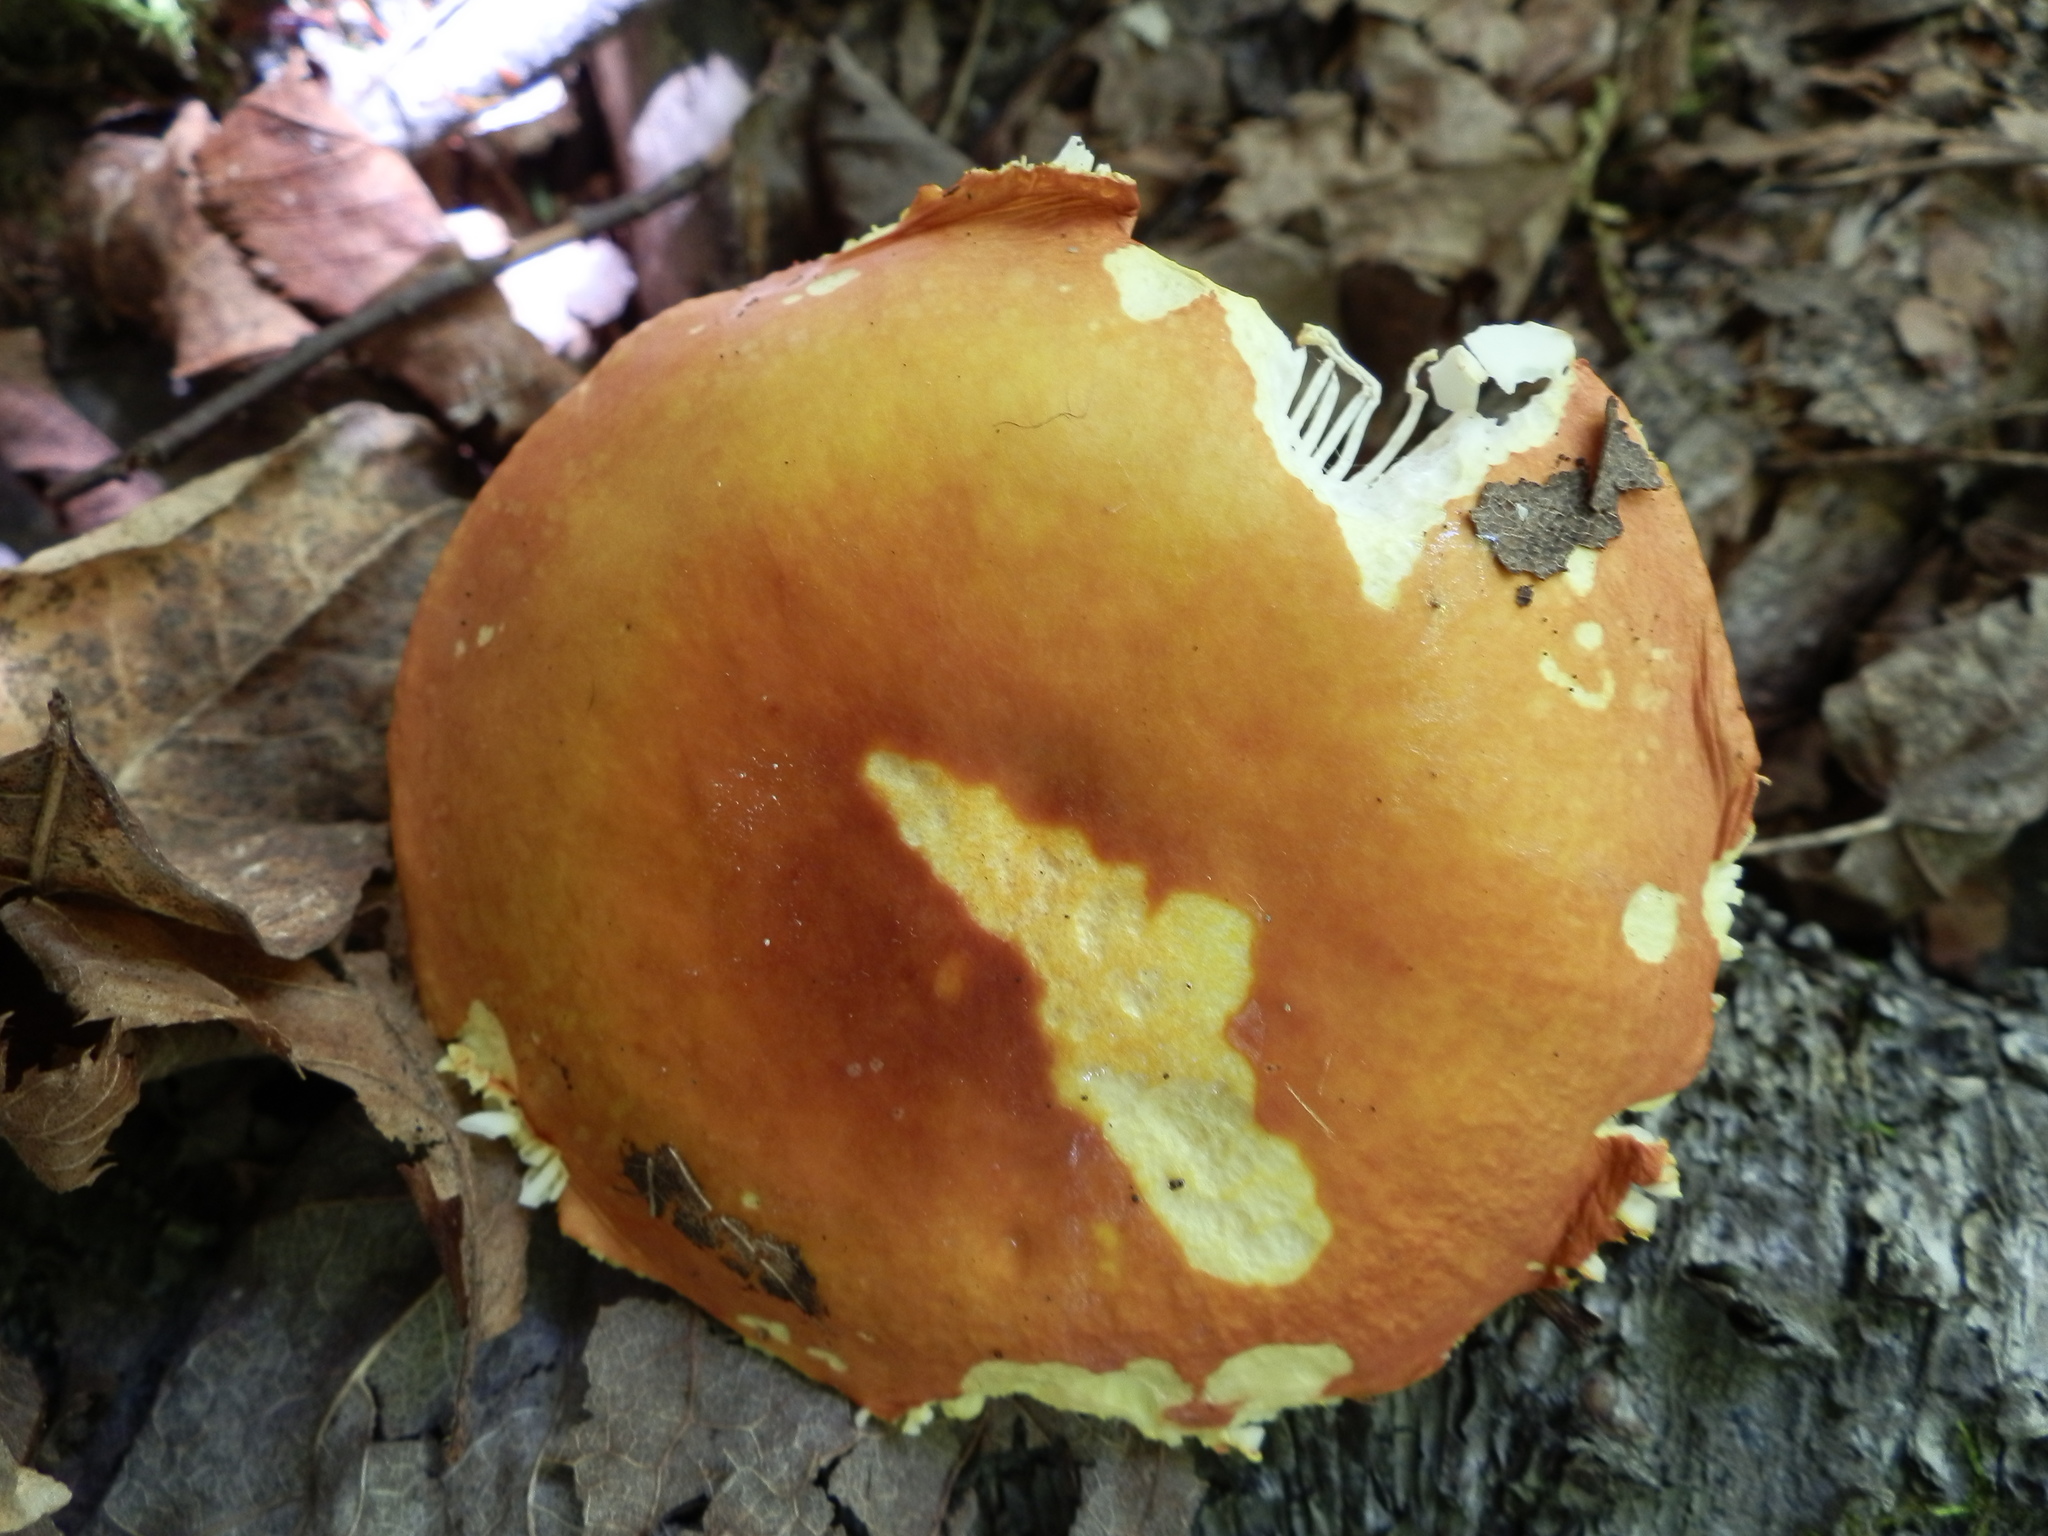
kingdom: Fungi
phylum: Basidiomycota
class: Agaricomycetes
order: Russulales
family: Russulaceae
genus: Russula
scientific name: Russula xantho
